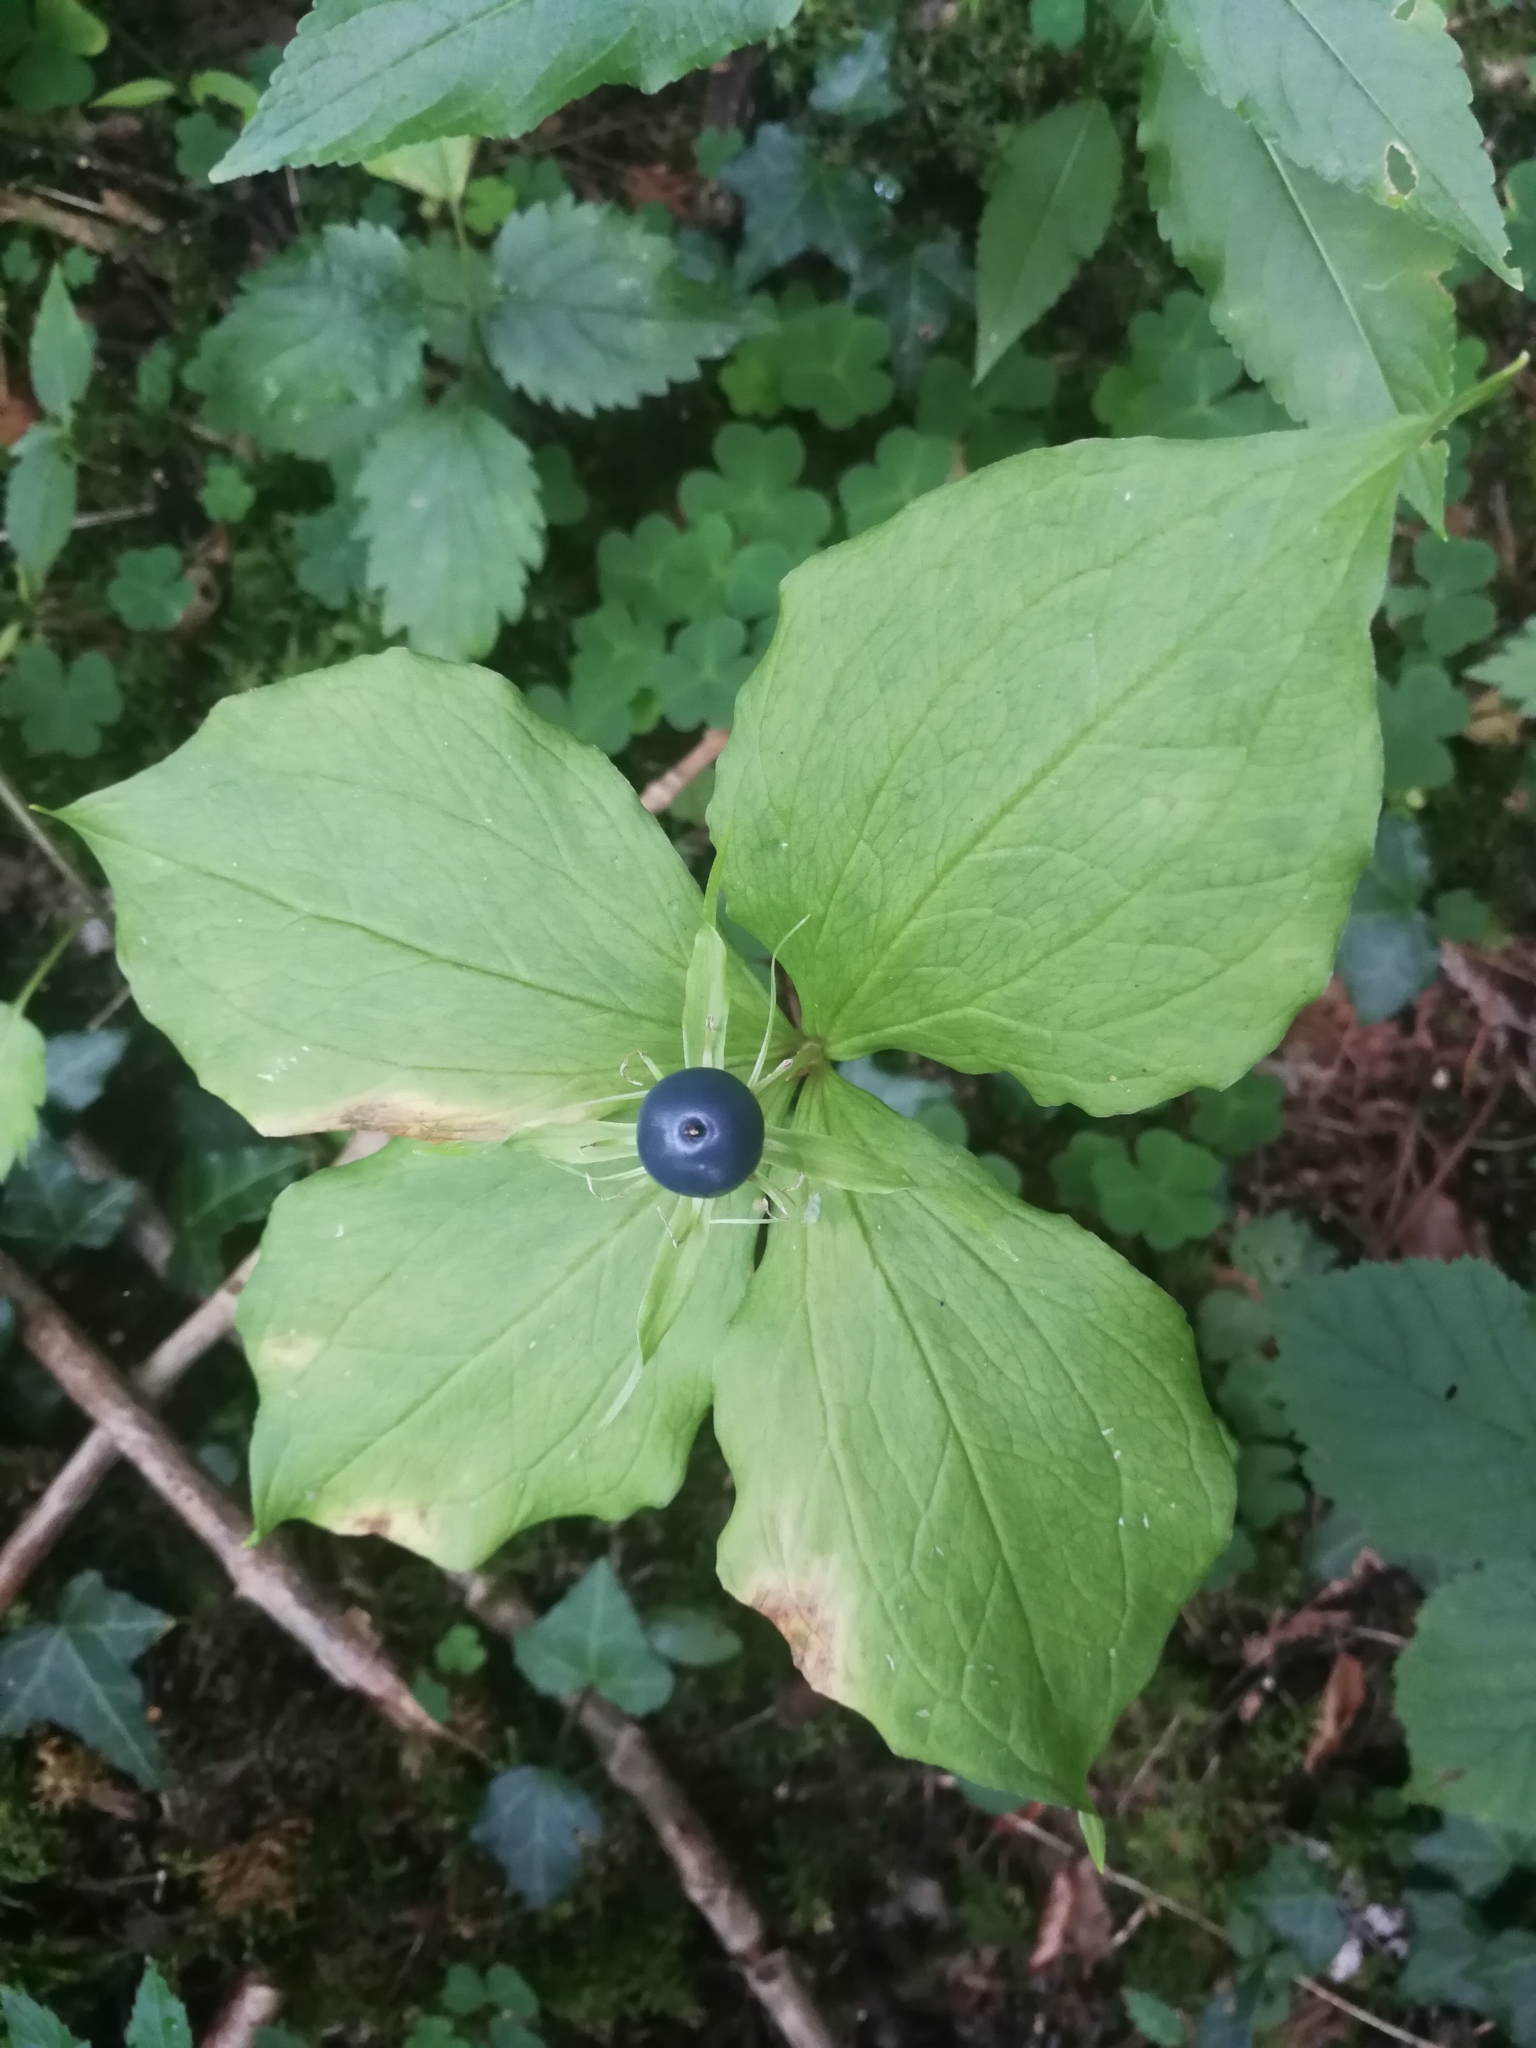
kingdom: Plantae
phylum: Tracheophyta
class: Liliopsida
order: Liliales
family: Melanthiaceae
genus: Paris
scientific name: Paris quadrifolia
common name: Herb-paris
